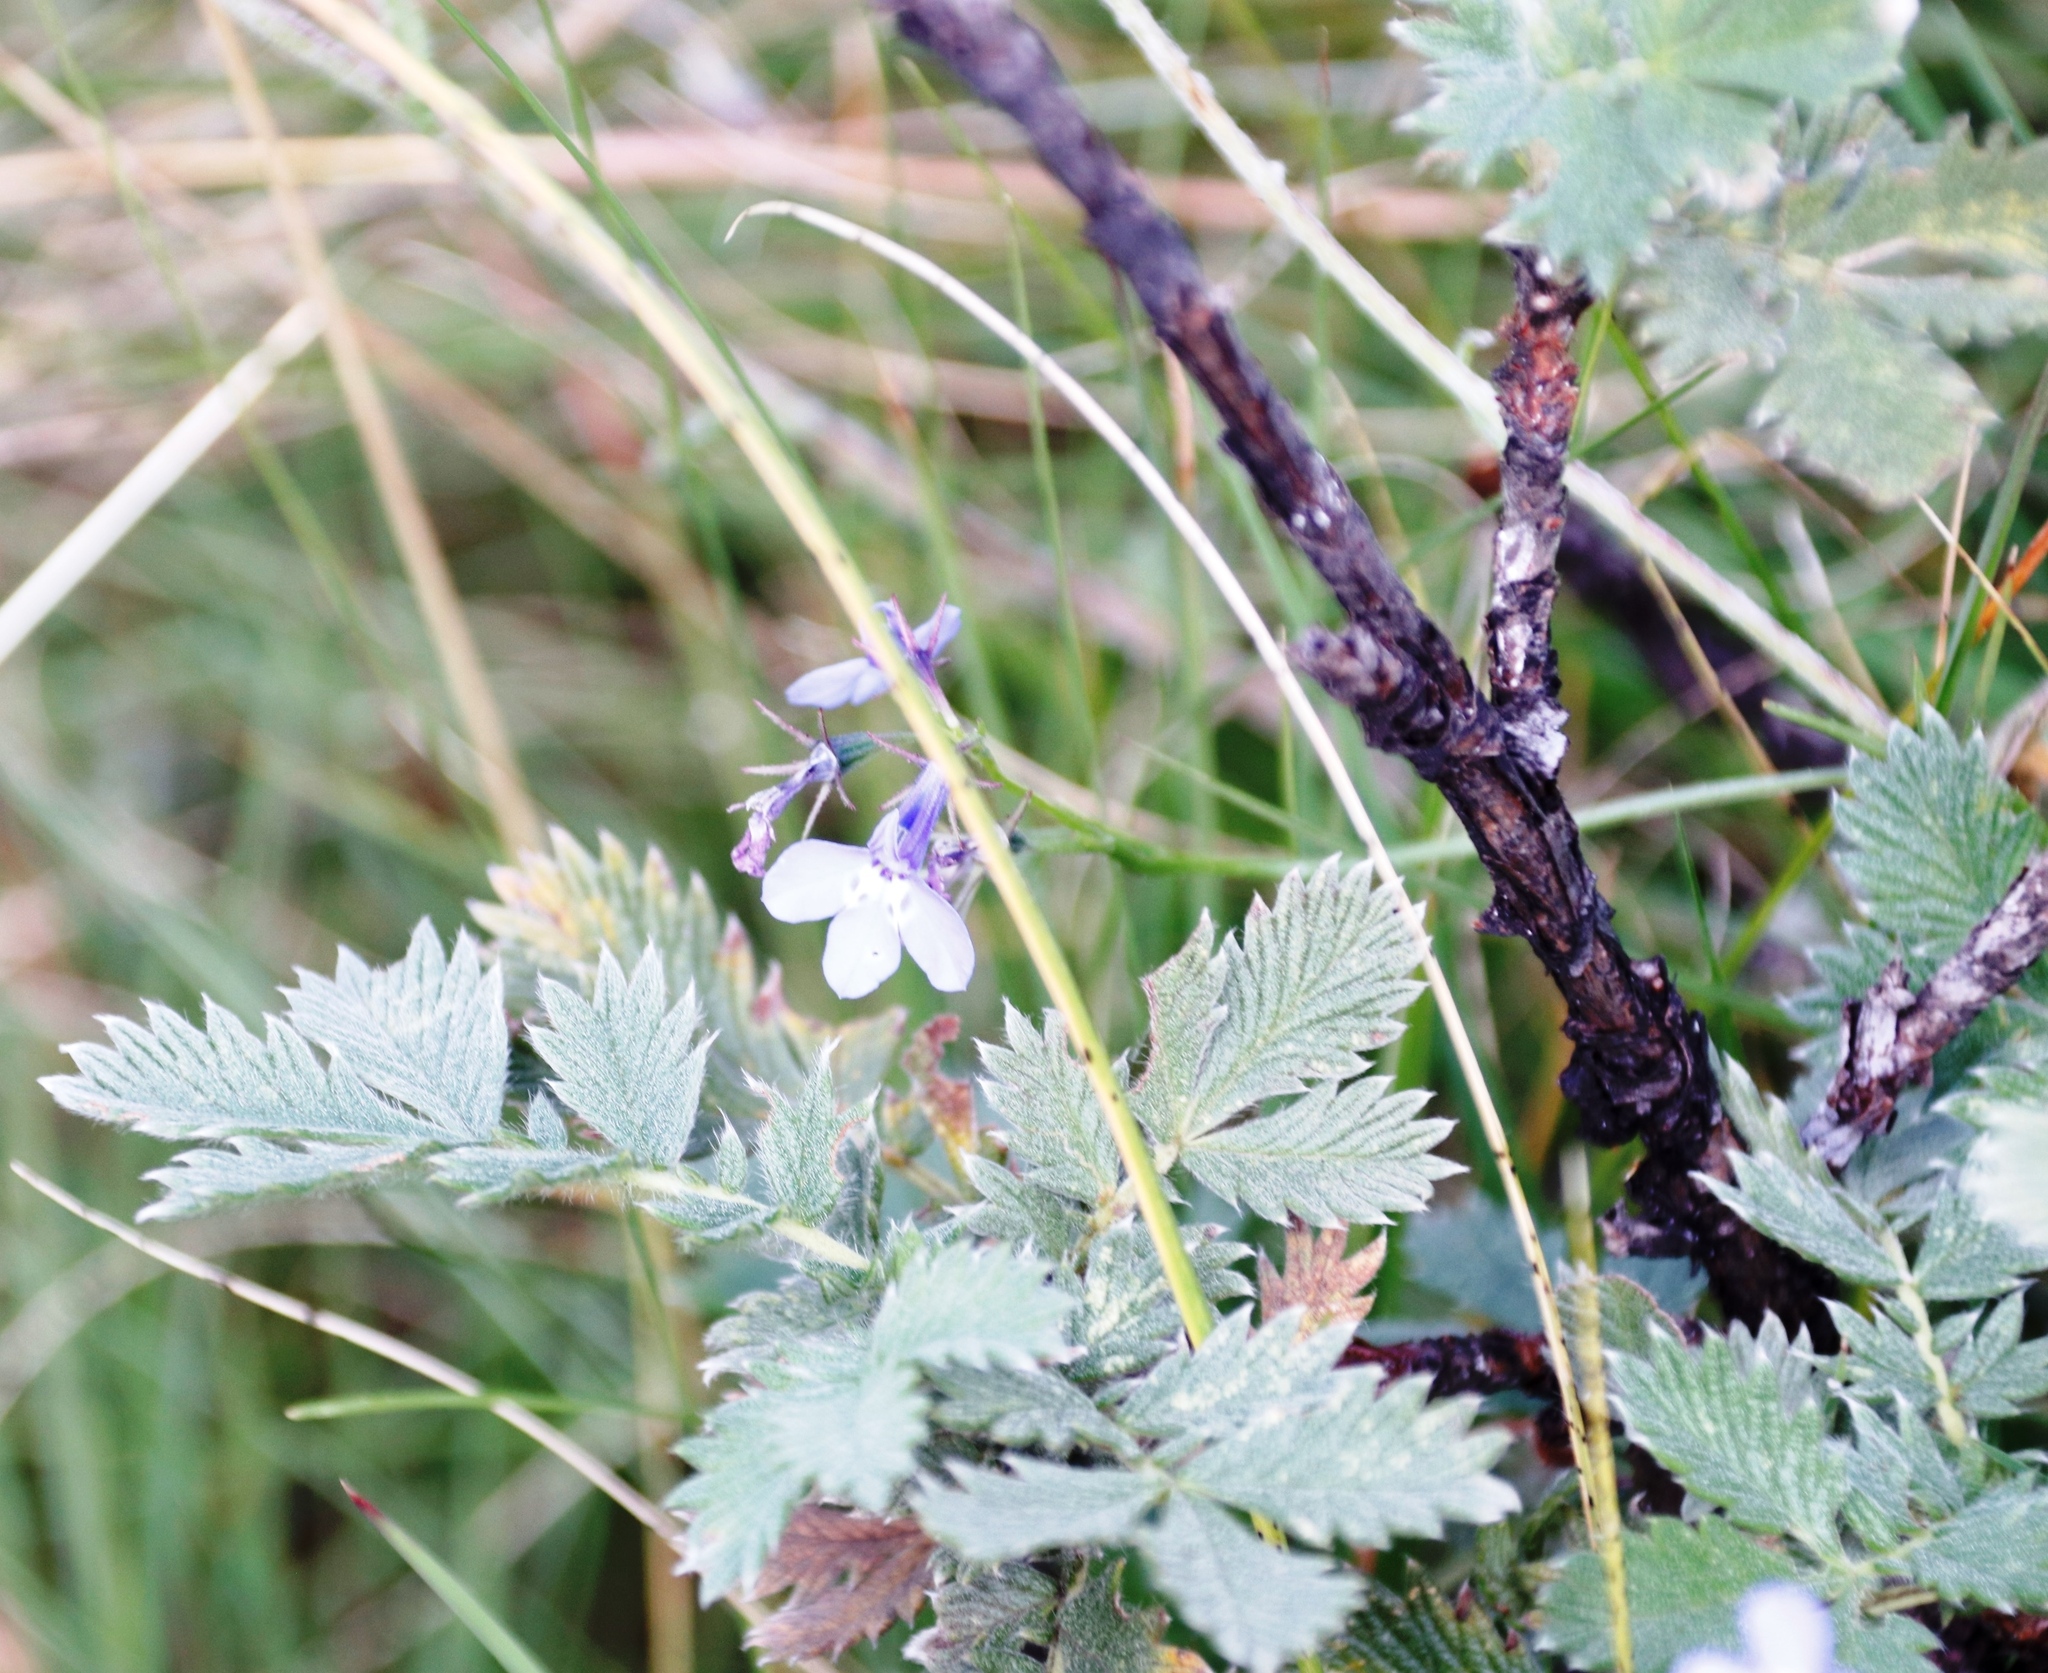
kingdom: Plantae
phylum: Tracheophyta
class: Magnoliopsida
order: Asterales
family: Campanulaceae
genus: Lobelia
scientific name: Lobelia flaccida
